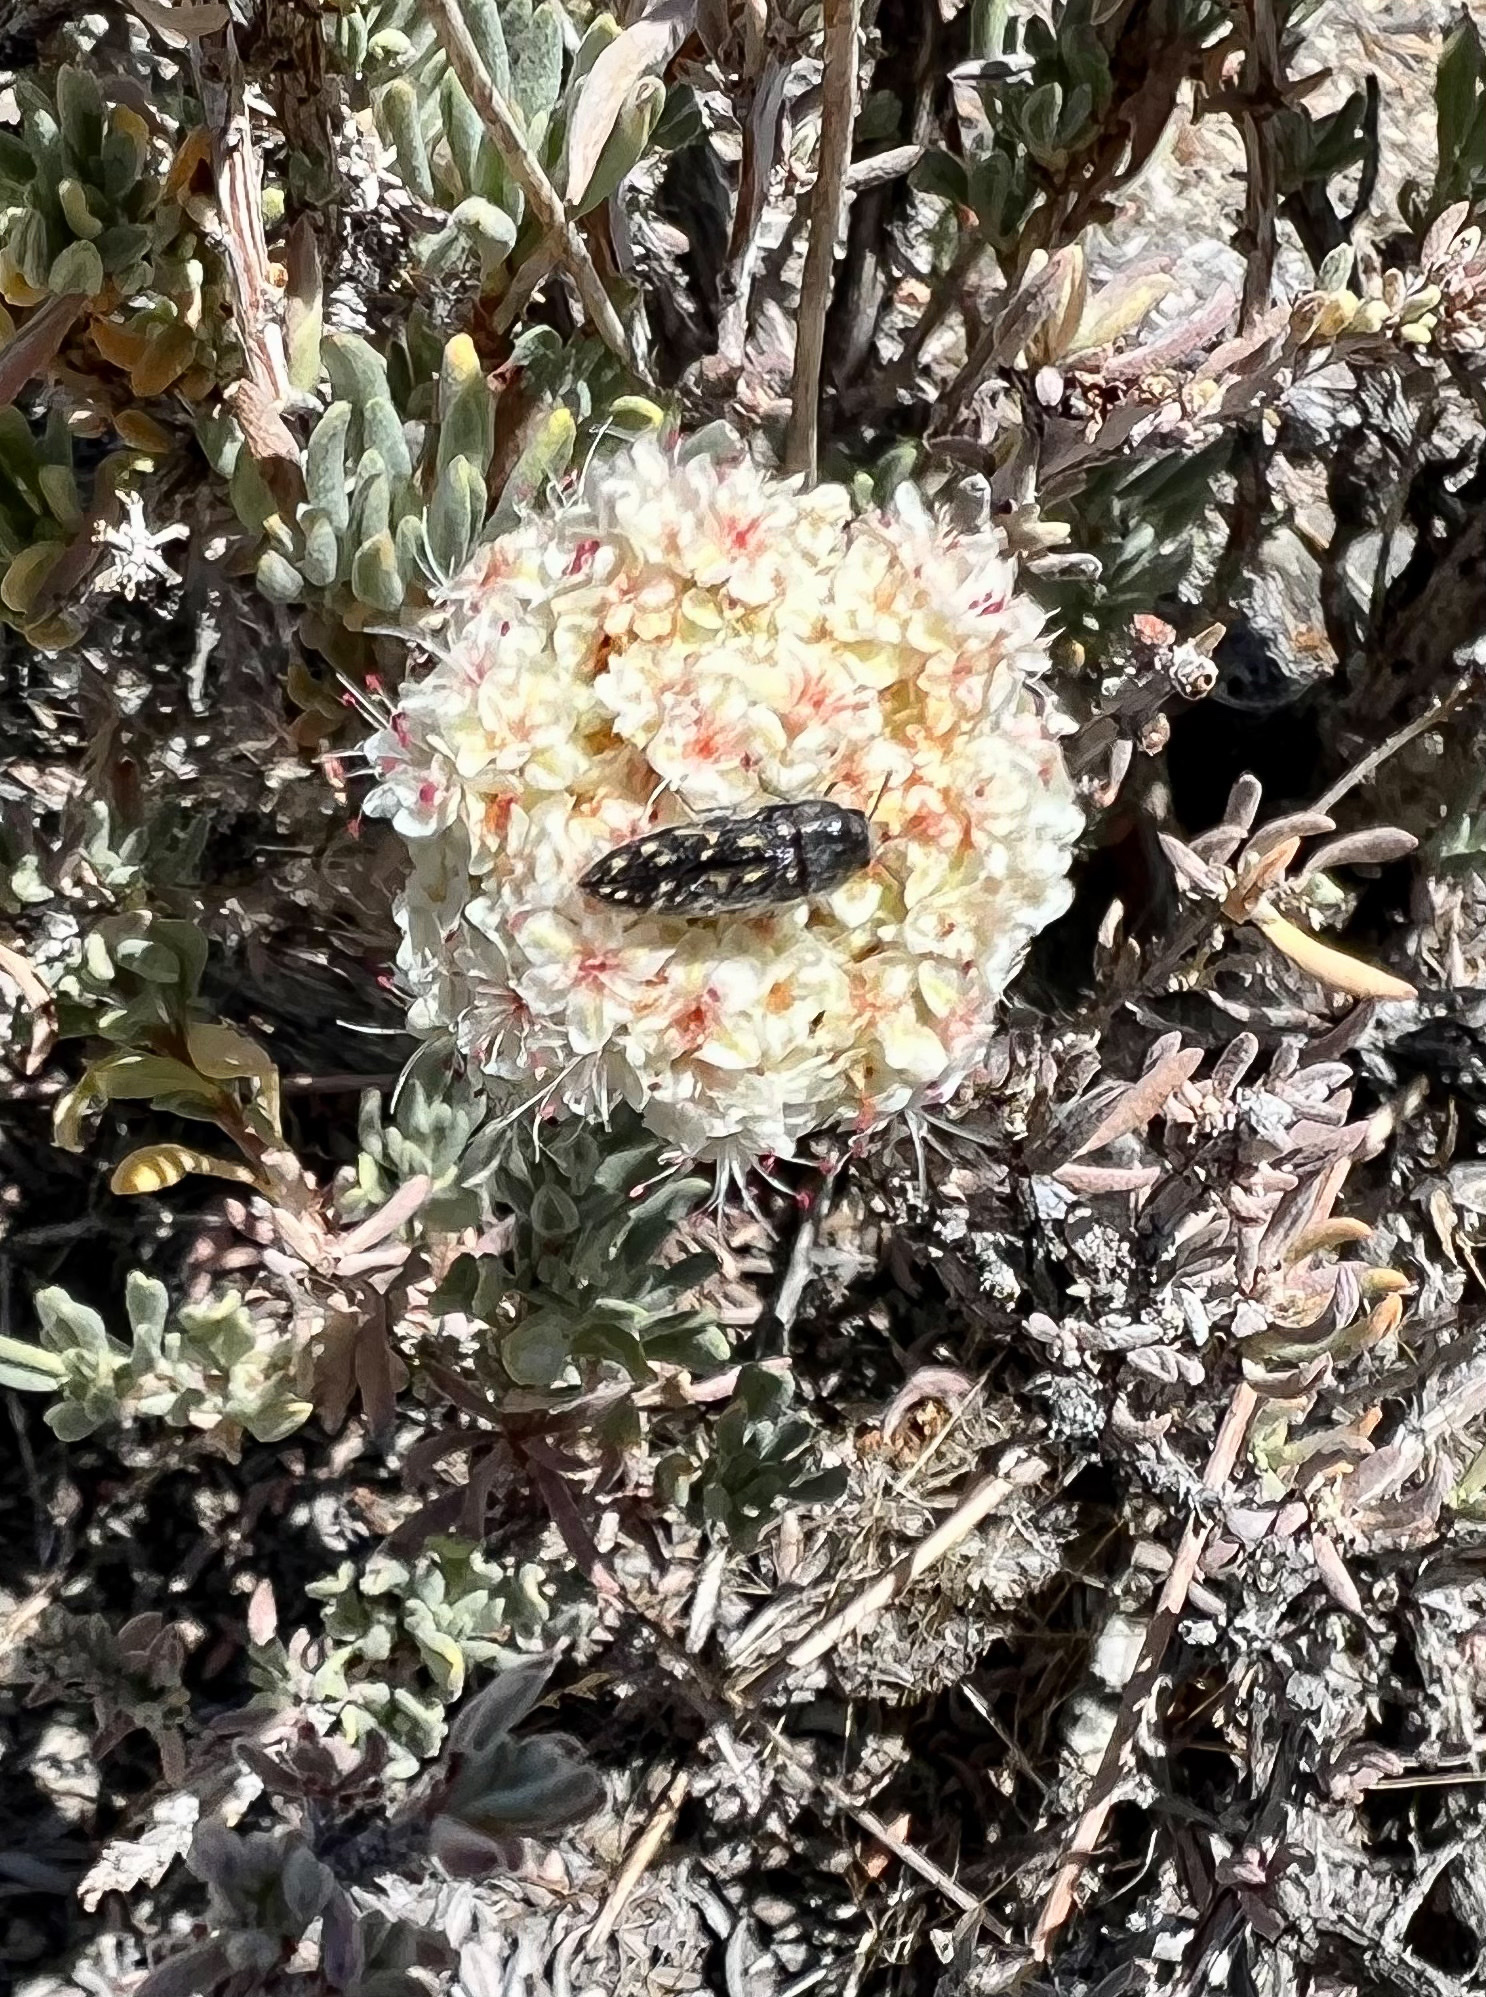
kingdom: Animalia
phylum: Arthropoda
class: Insecta
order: Coleoptera
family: Buprestidae
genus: Acmaeodera
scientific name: Acmaeodera atactospilota
